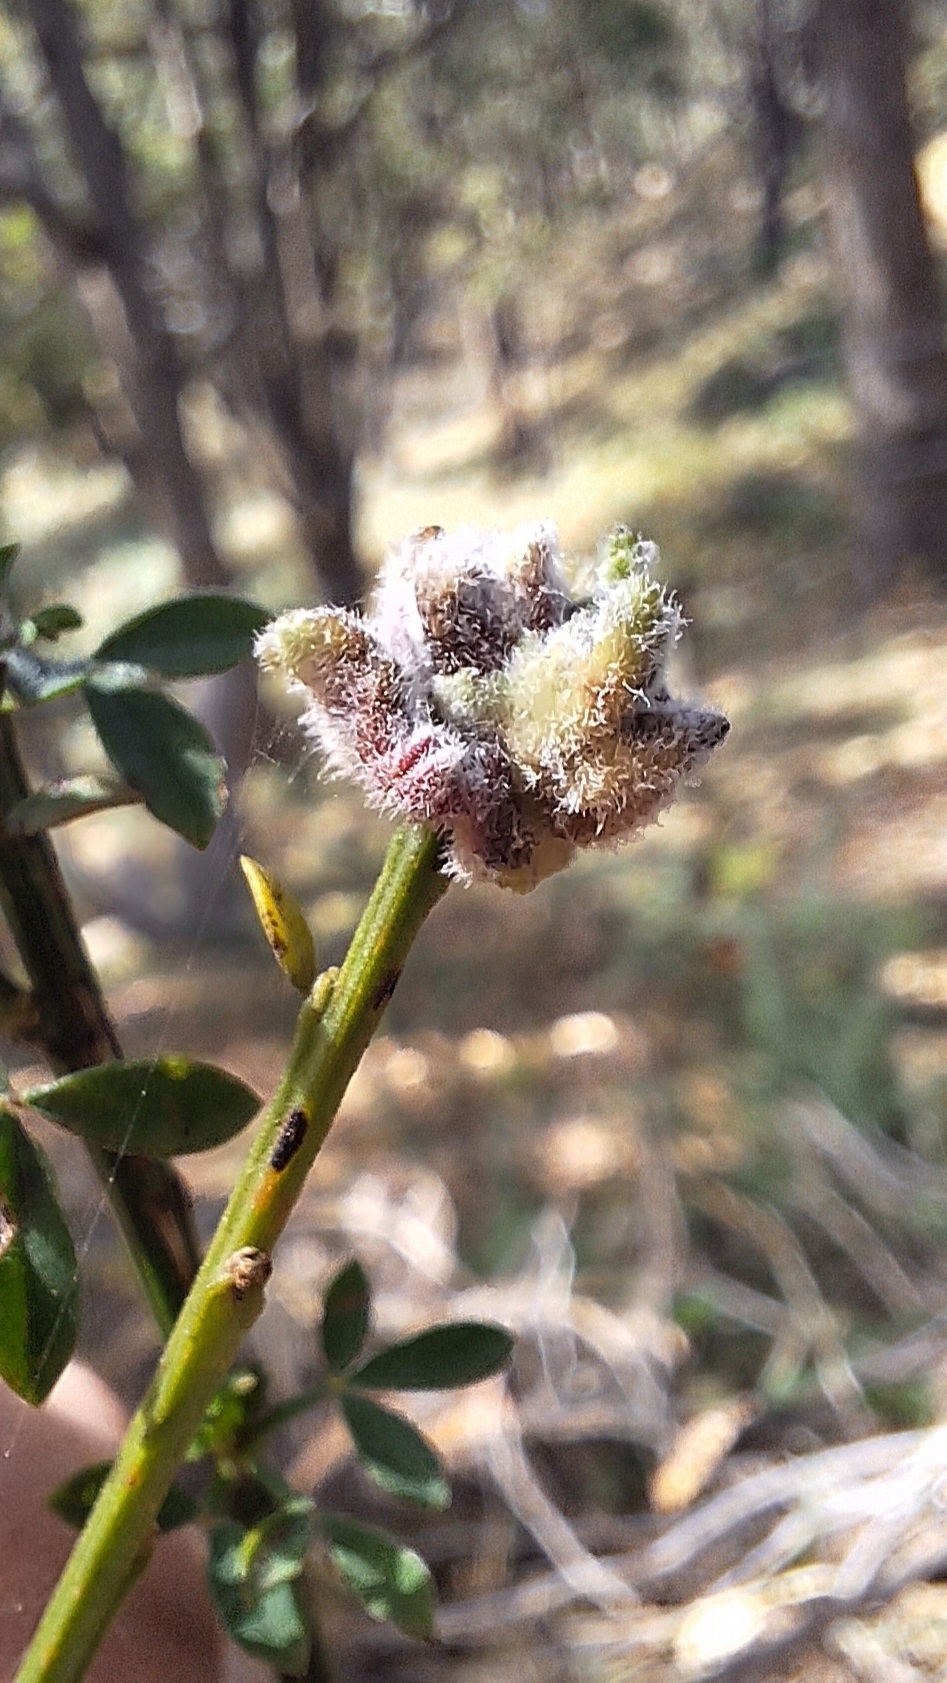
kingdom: Animalia
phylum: Arthropoda
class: Arachnida
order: Trombidiformes
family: Eriophyidae
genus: Aceria
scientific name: Aceria genistae
